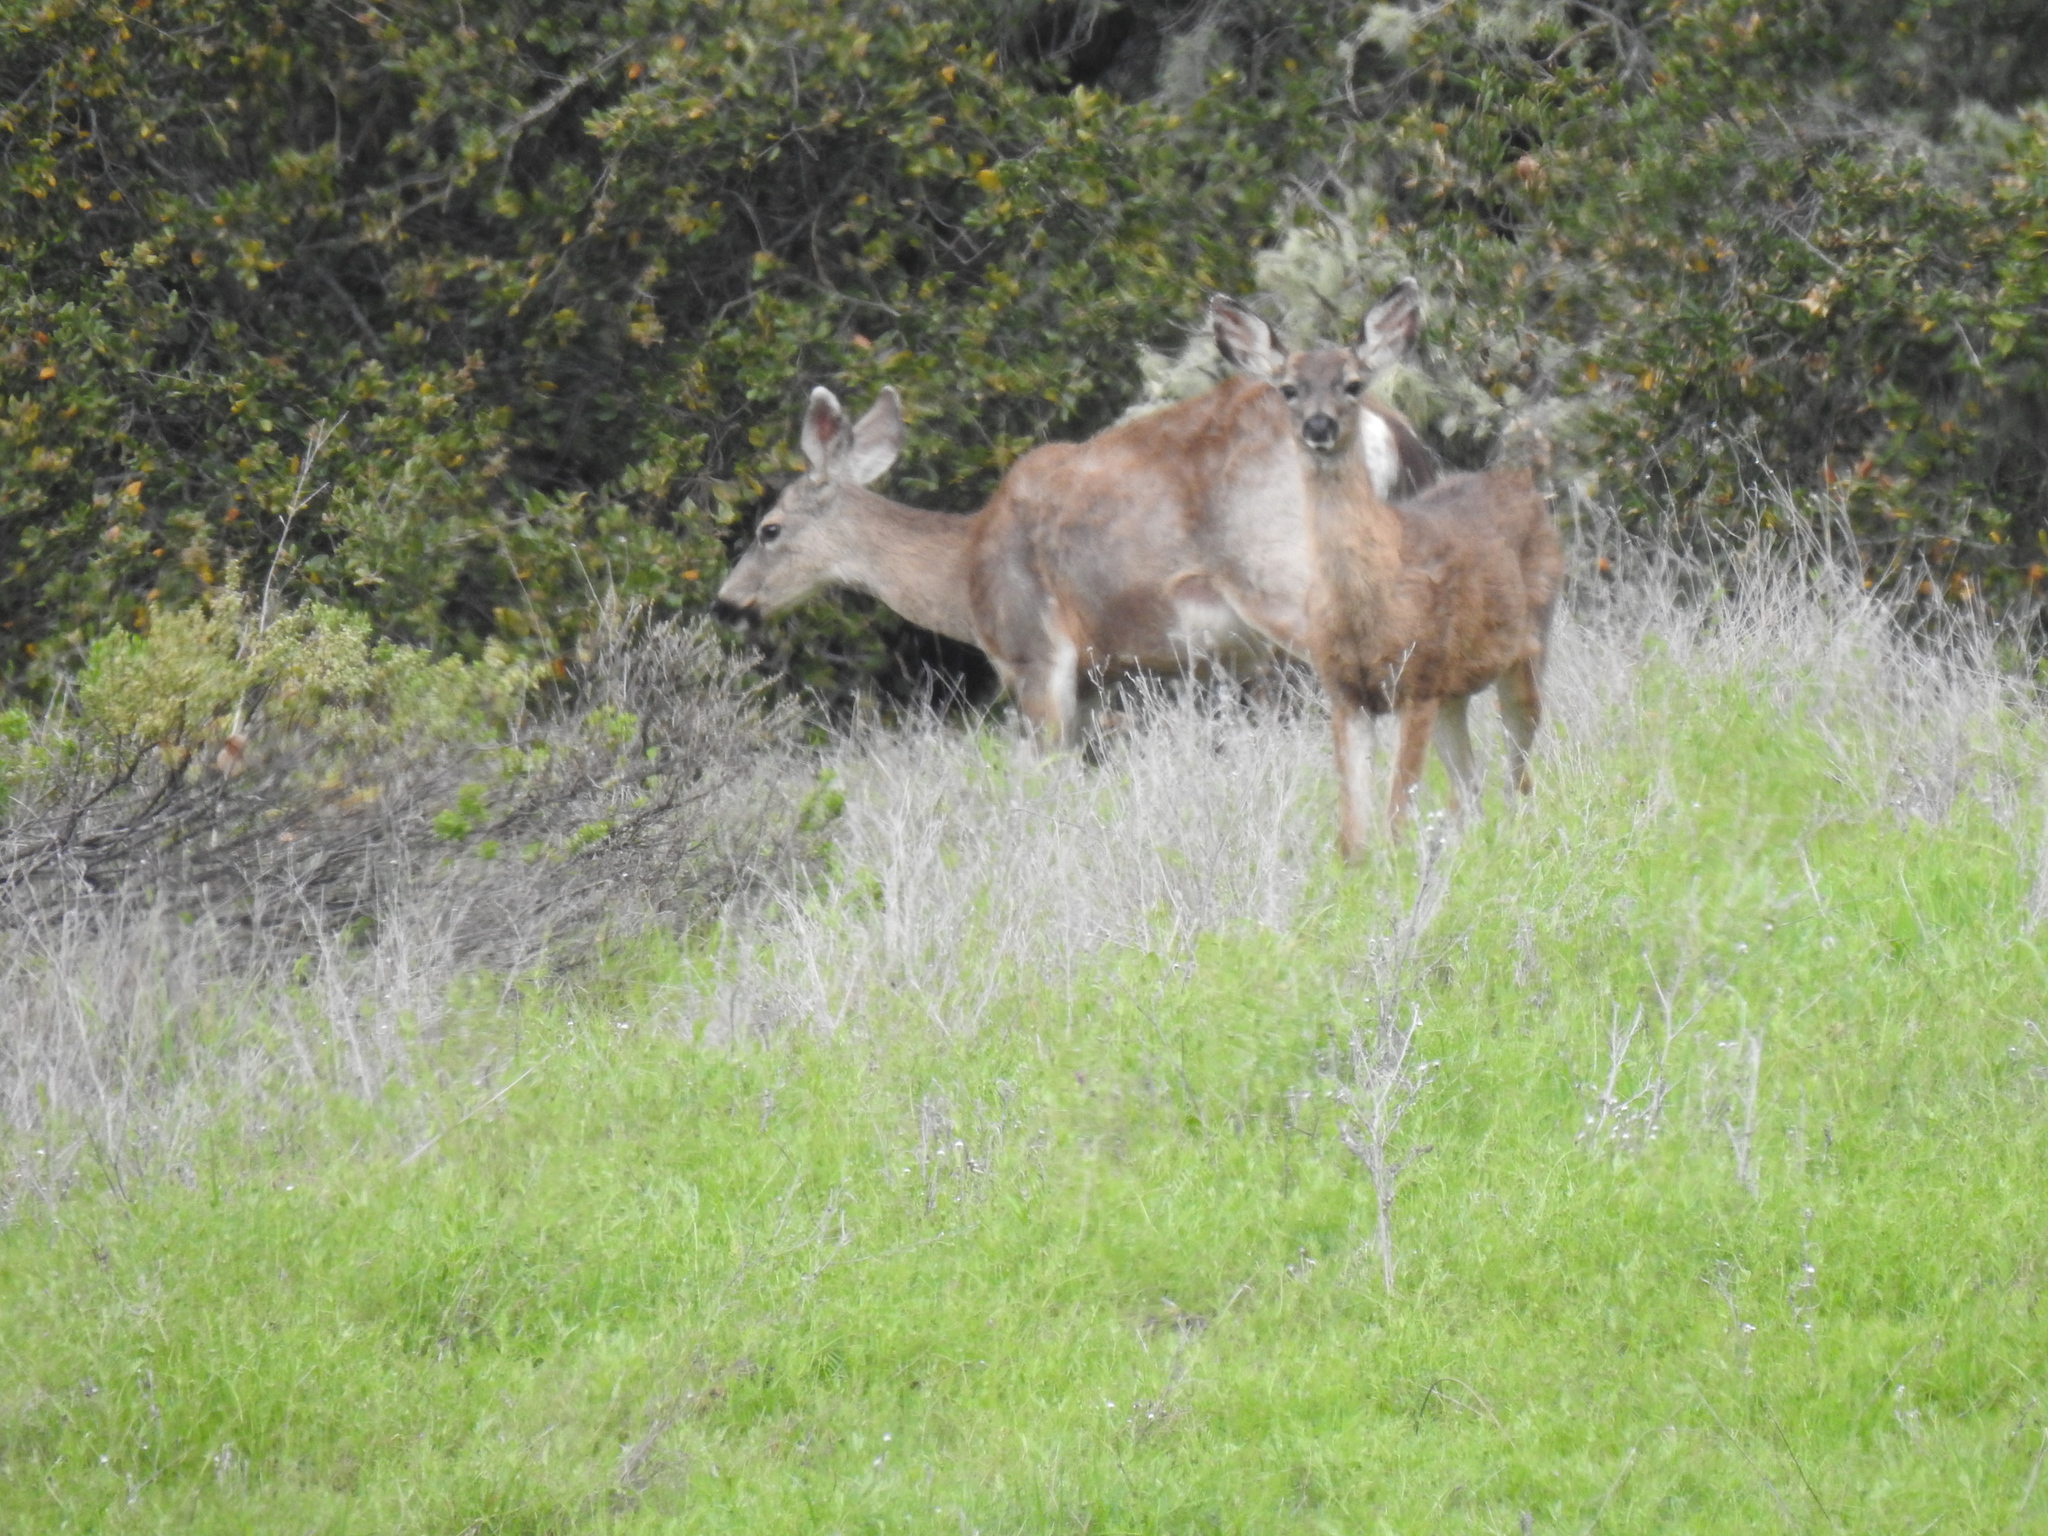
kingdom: Animalia
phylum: Chordata
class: Mammalia
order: Artiodactyla
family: Cervidae
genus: Odocoileus
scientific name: Odocoileus hemionus
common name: Mule deer
